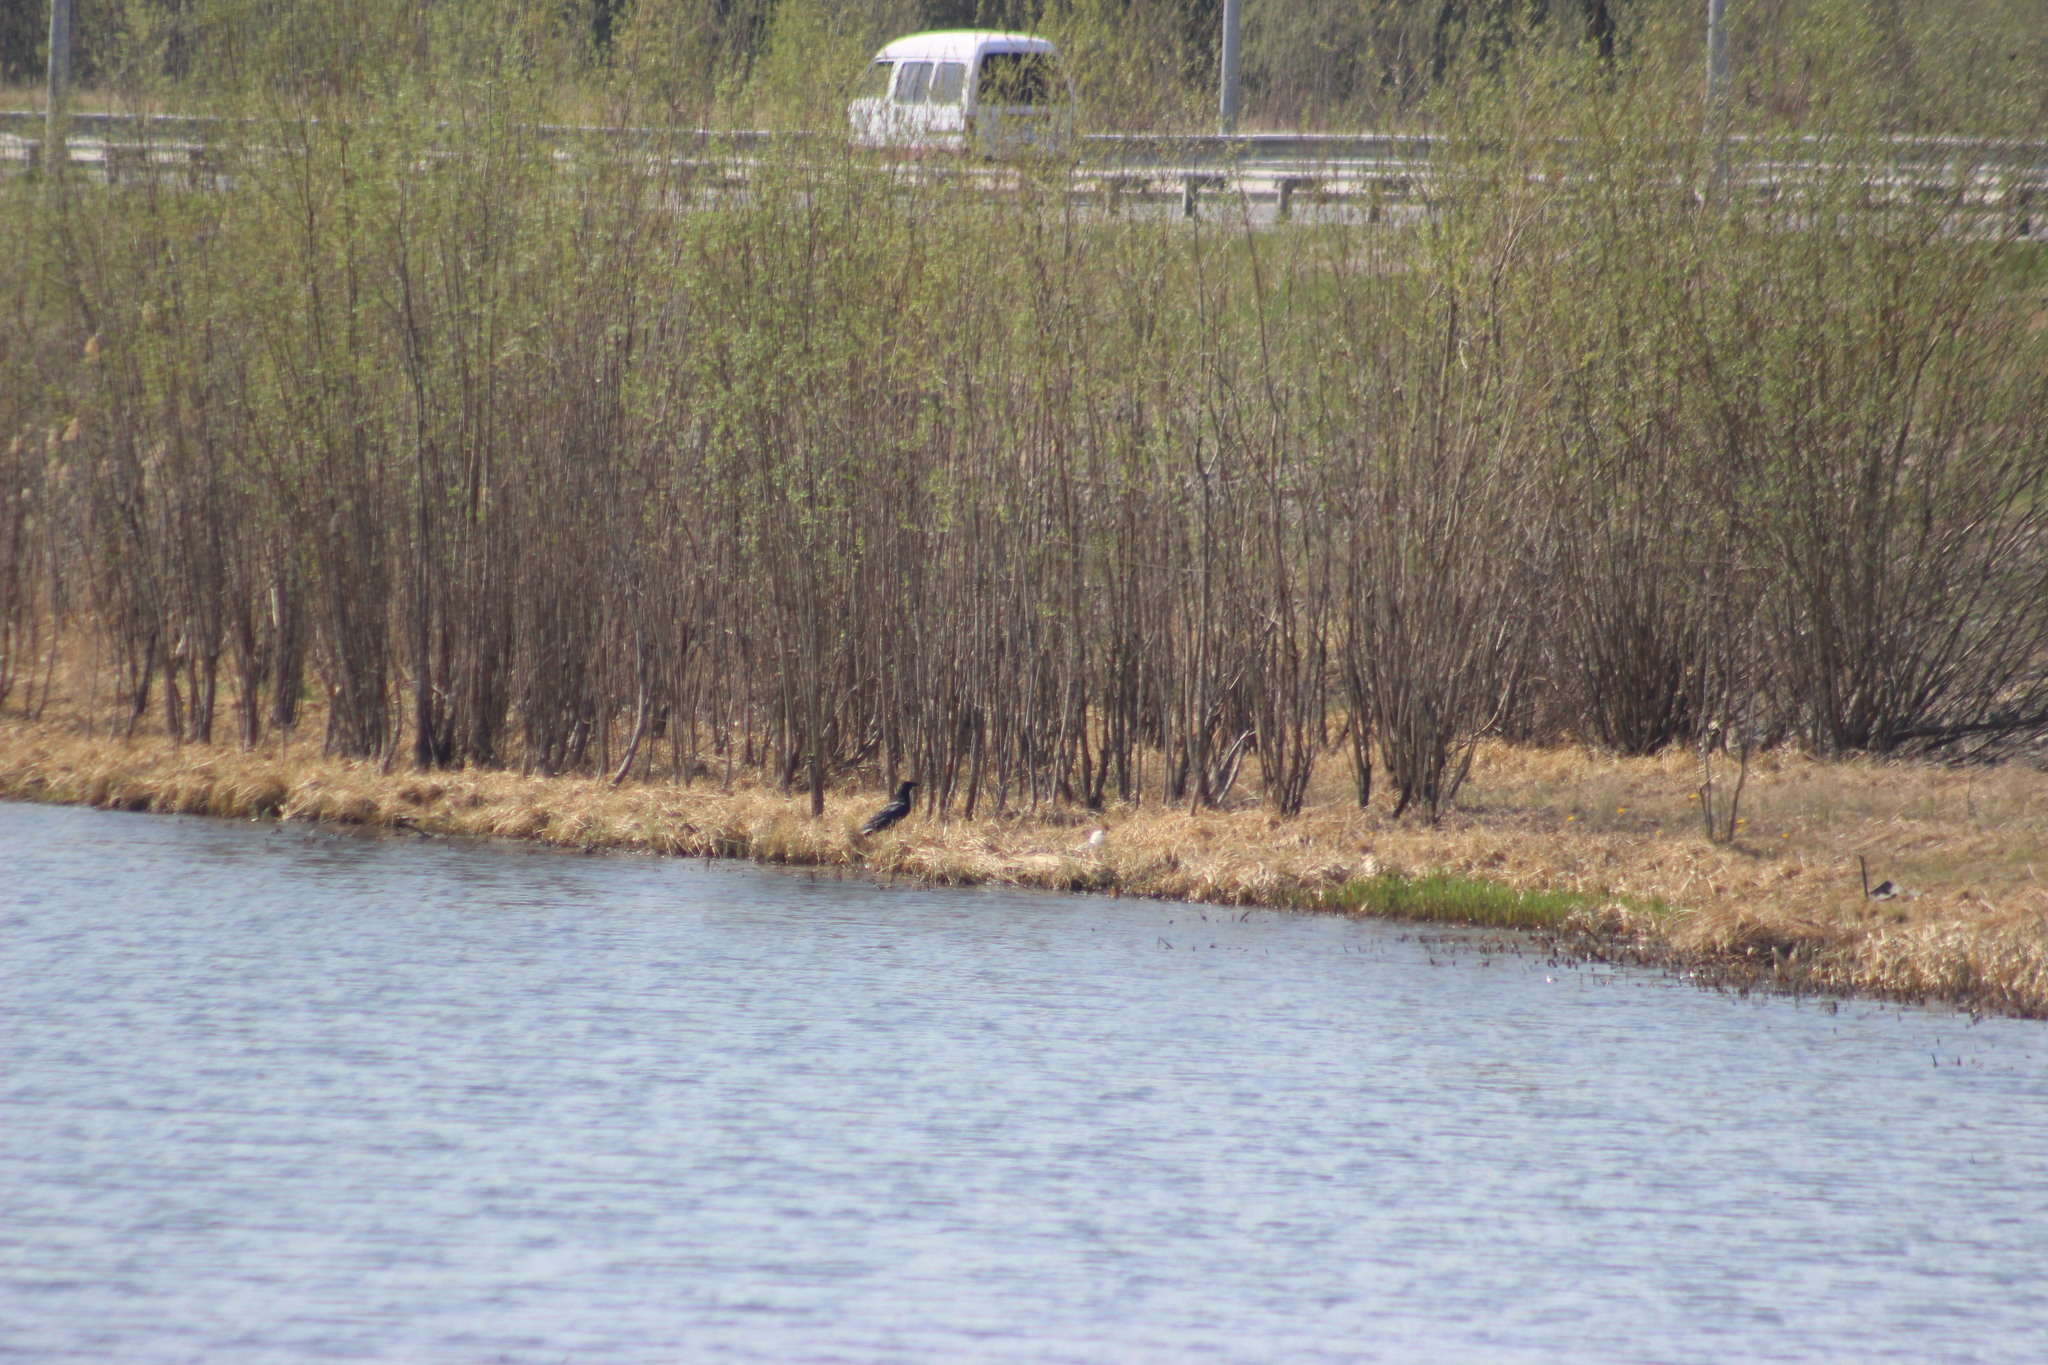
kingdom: Animalia
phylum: Chordata
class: Aves
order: Passeriformes
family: Corvidae
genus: Corvus
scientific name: Corvus corax
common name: Common raven
